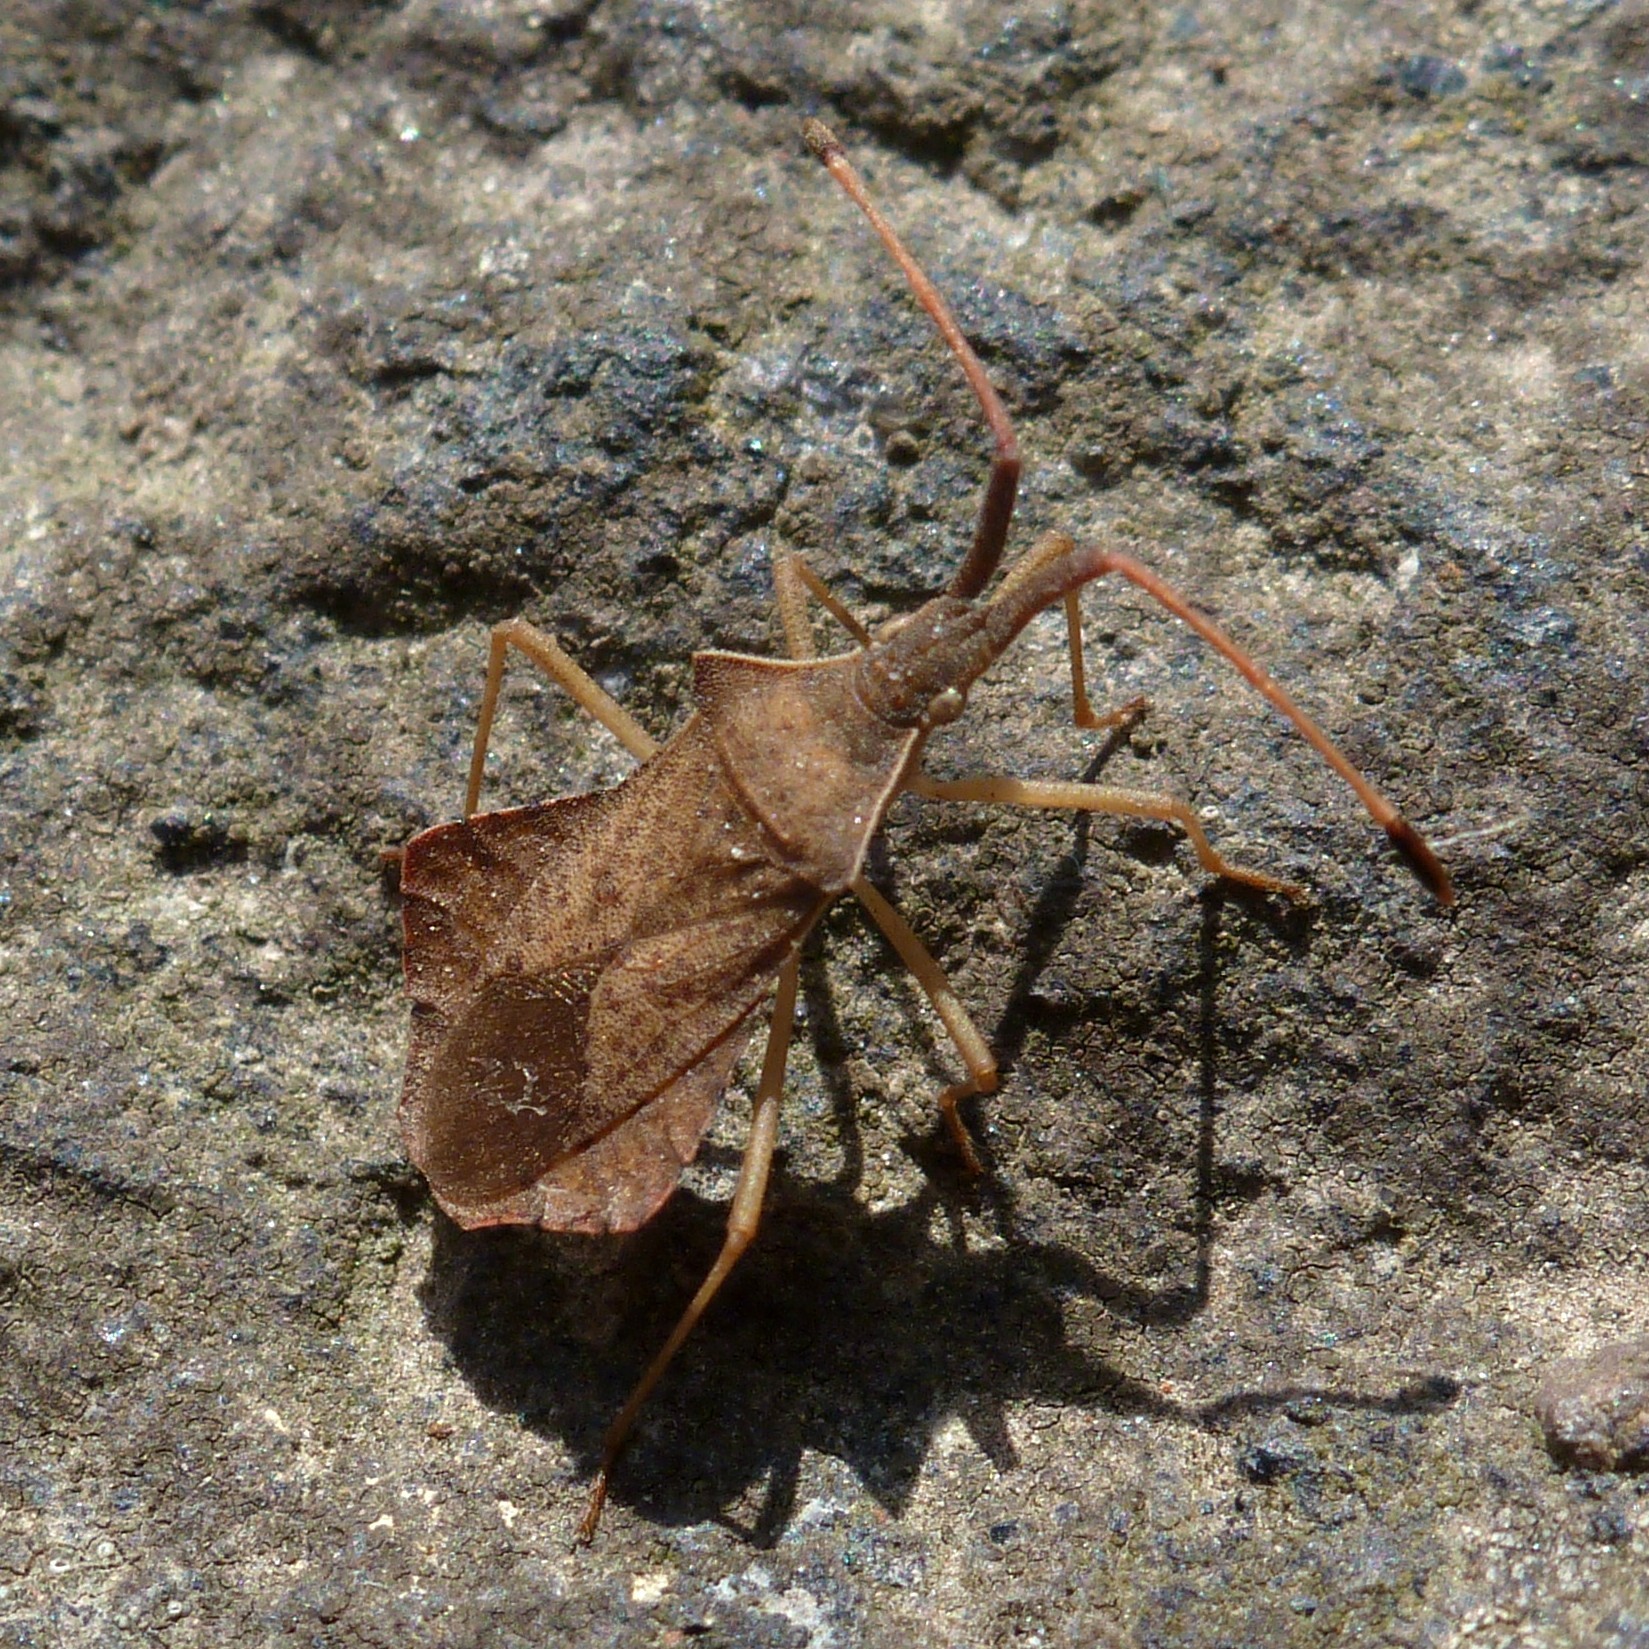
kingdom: Animalia
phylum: Arthropoda
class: Insecta
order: Hemiptera
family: Coreidae
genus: Syromastus
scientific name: Syromastus rhombeus
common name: Rhombic leatherbug
